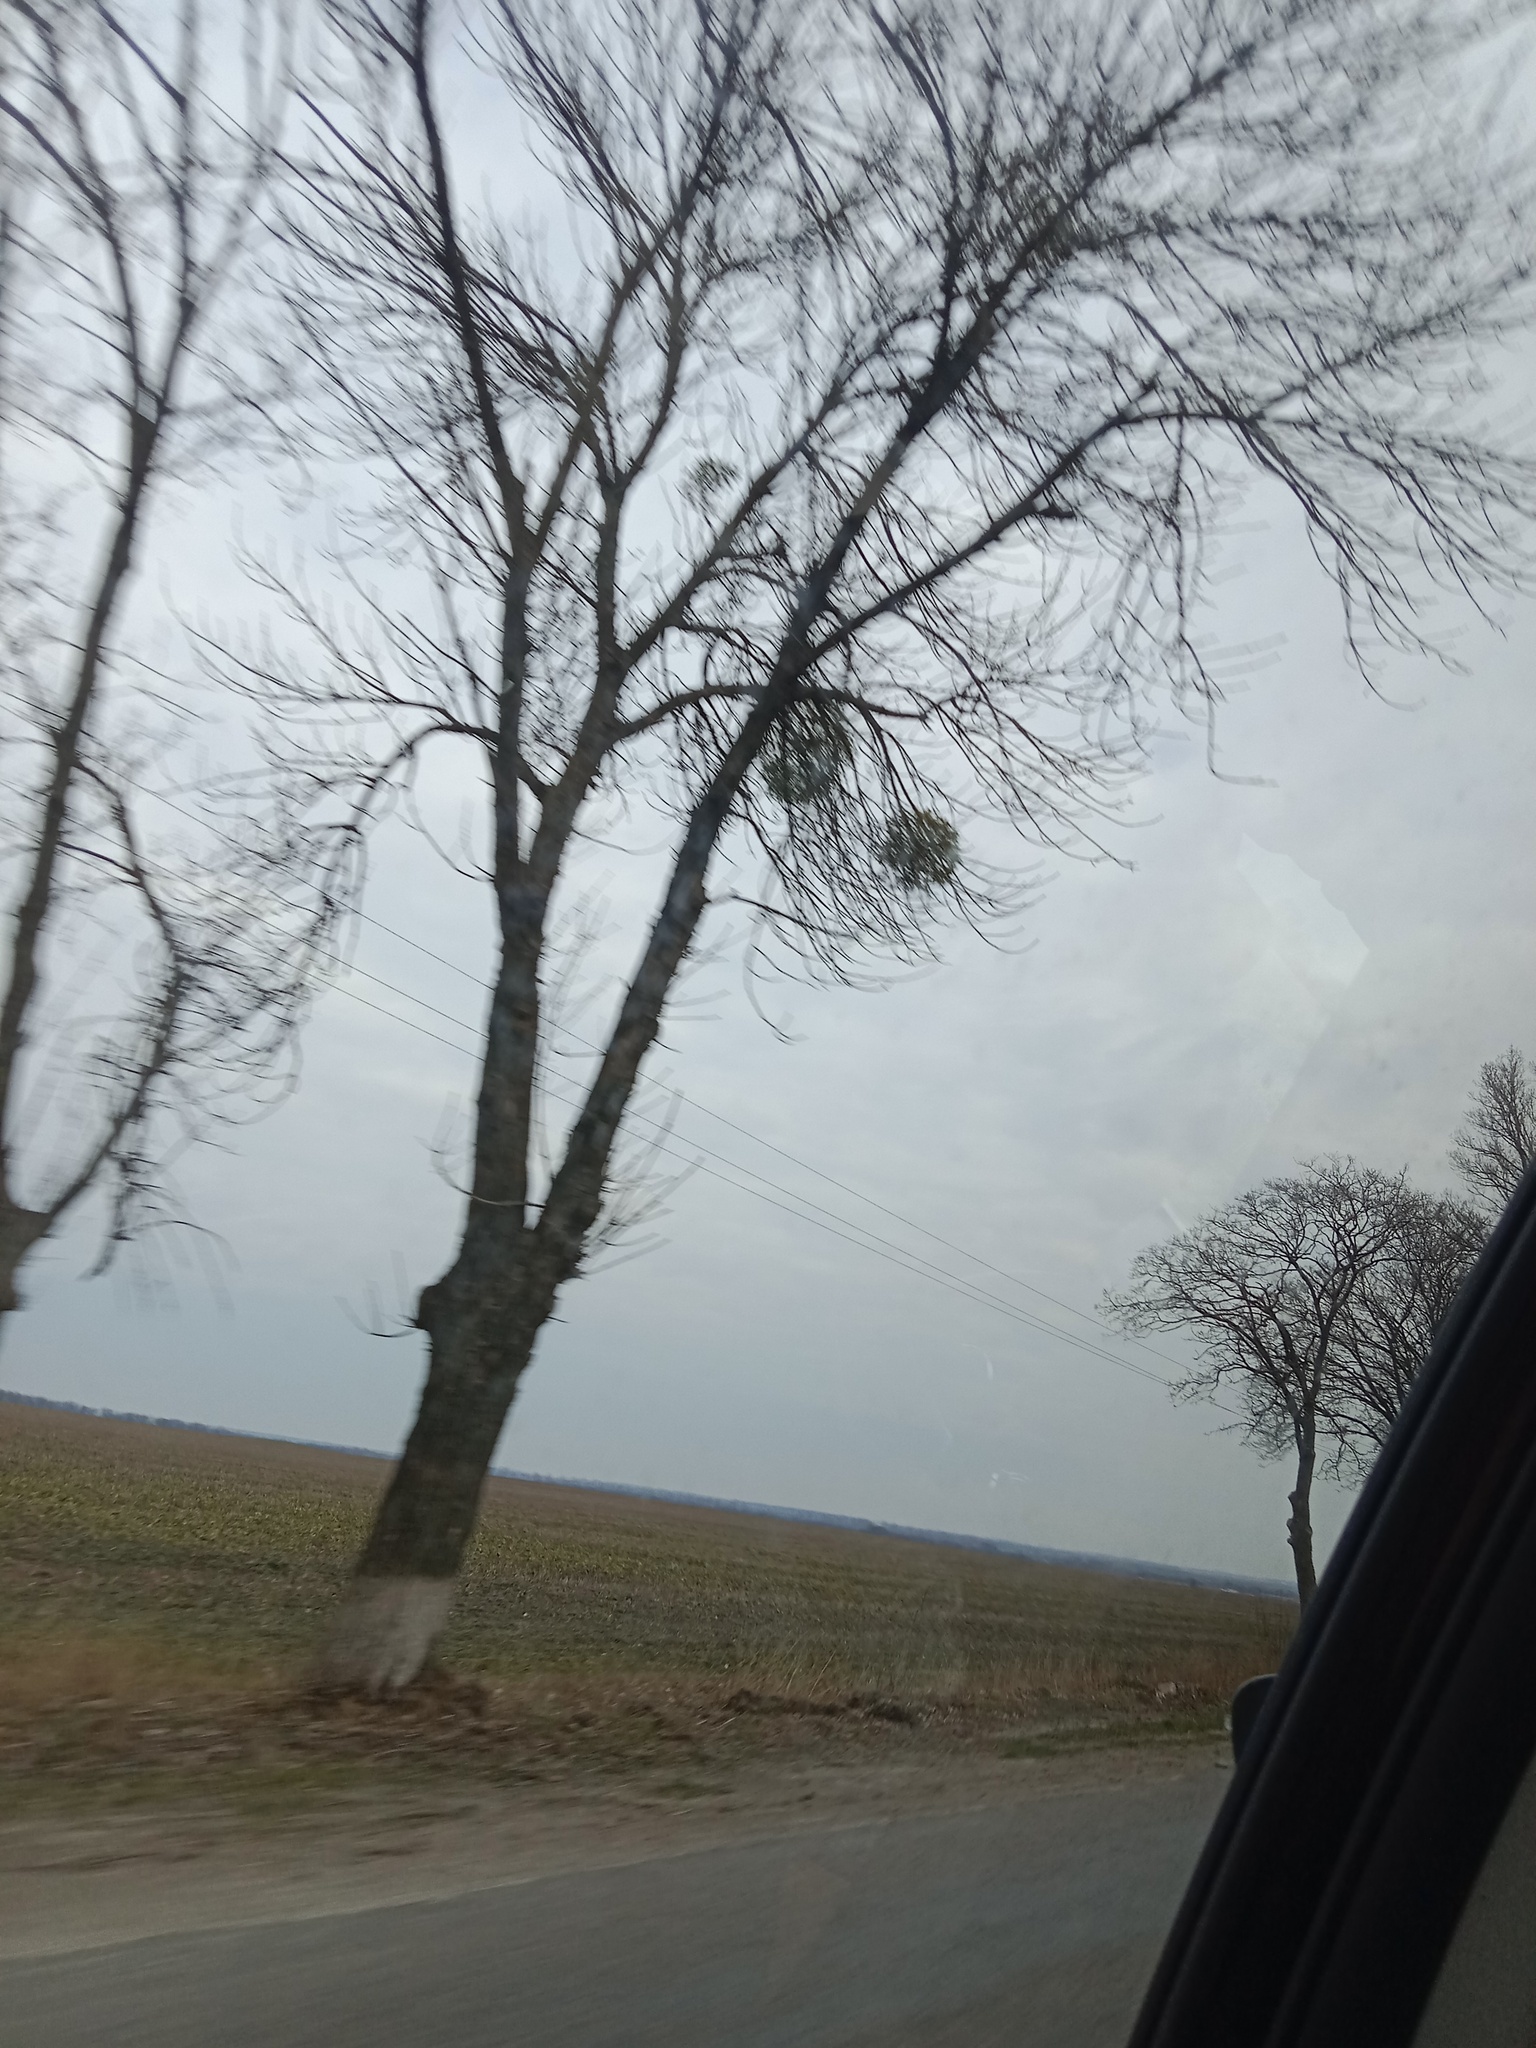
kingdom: Plantae
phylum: Tracheophyta
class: Magnoliopsida
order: Santalales
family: Viscaceae
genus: Viscum
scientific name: Viscum album
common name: Mistletoe
